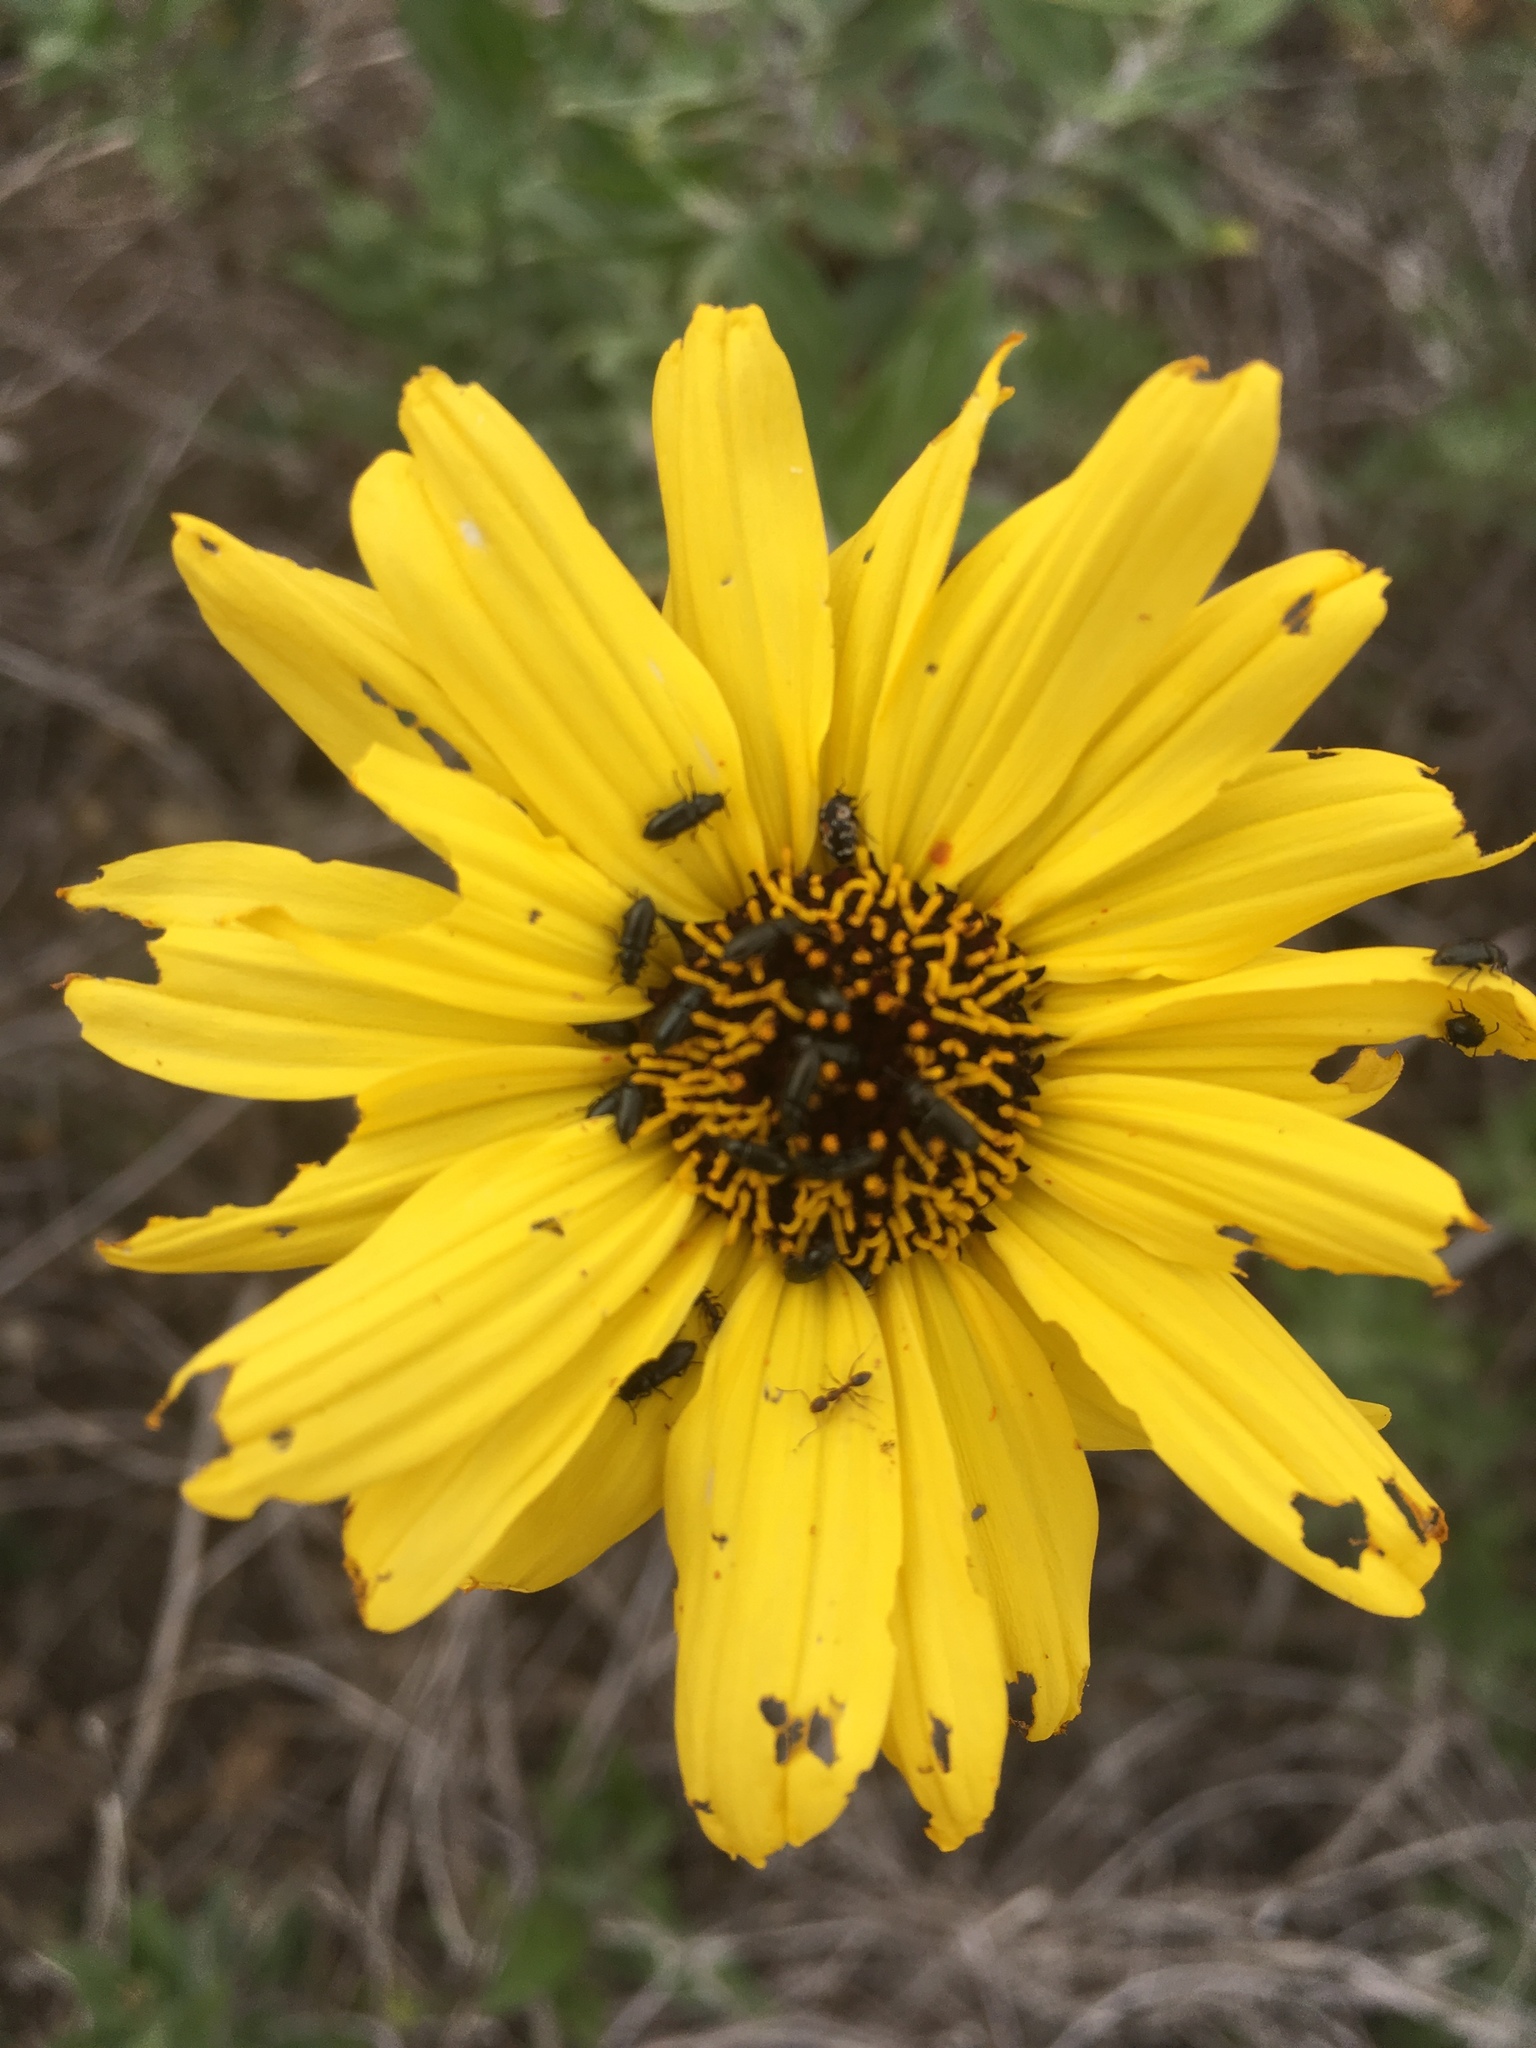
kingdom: Plantae
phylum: Tracheophyta
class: Magnoliopsida
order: Asterales
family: Asteraceae
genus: Encelia
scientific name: Encelia californica
